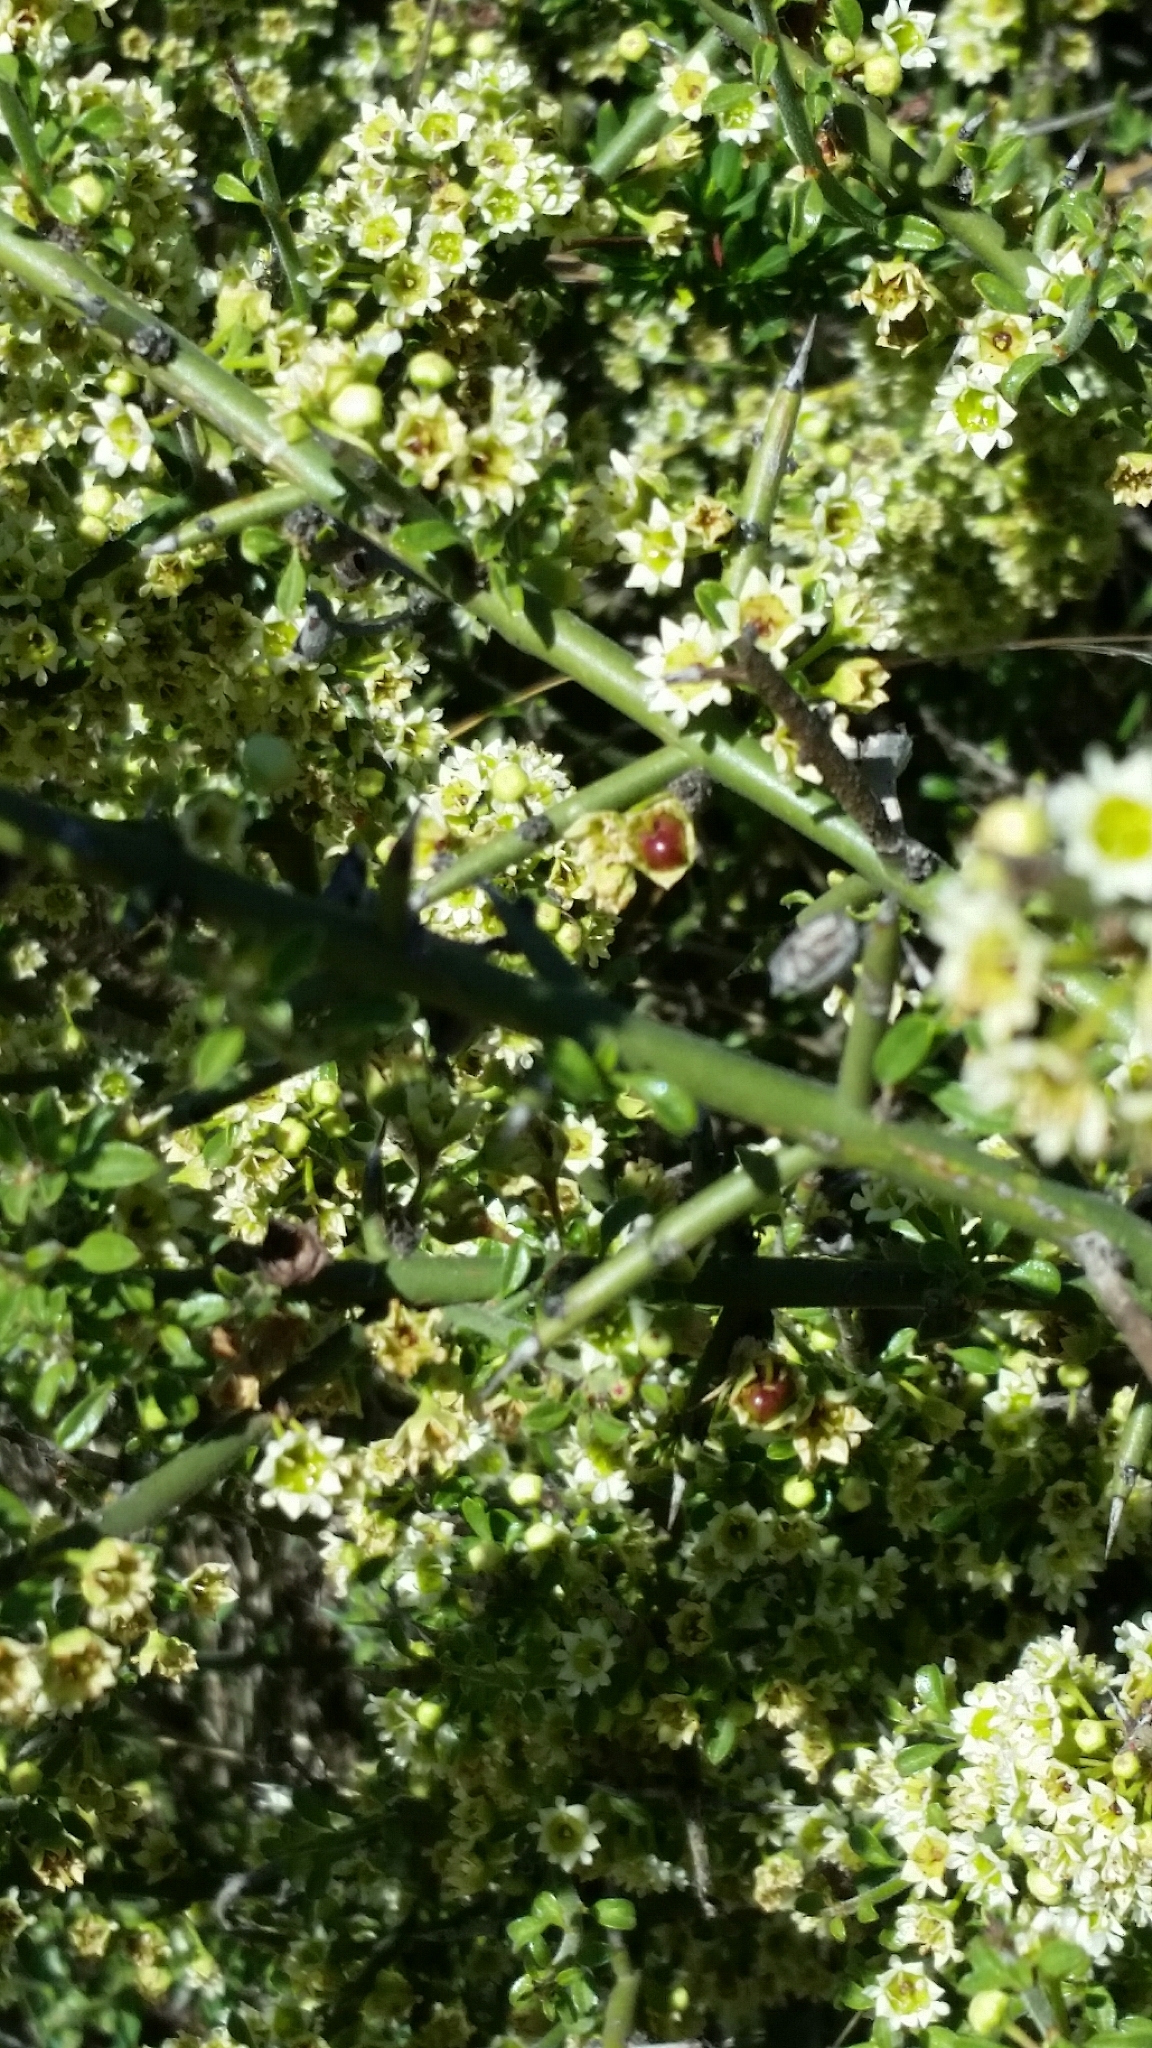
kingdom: Plantae
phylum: Tracheophyta
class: Magnoliopsida
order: Rosales
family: Rhamnaceae
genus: Adolphia
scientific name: Adolphia californica
